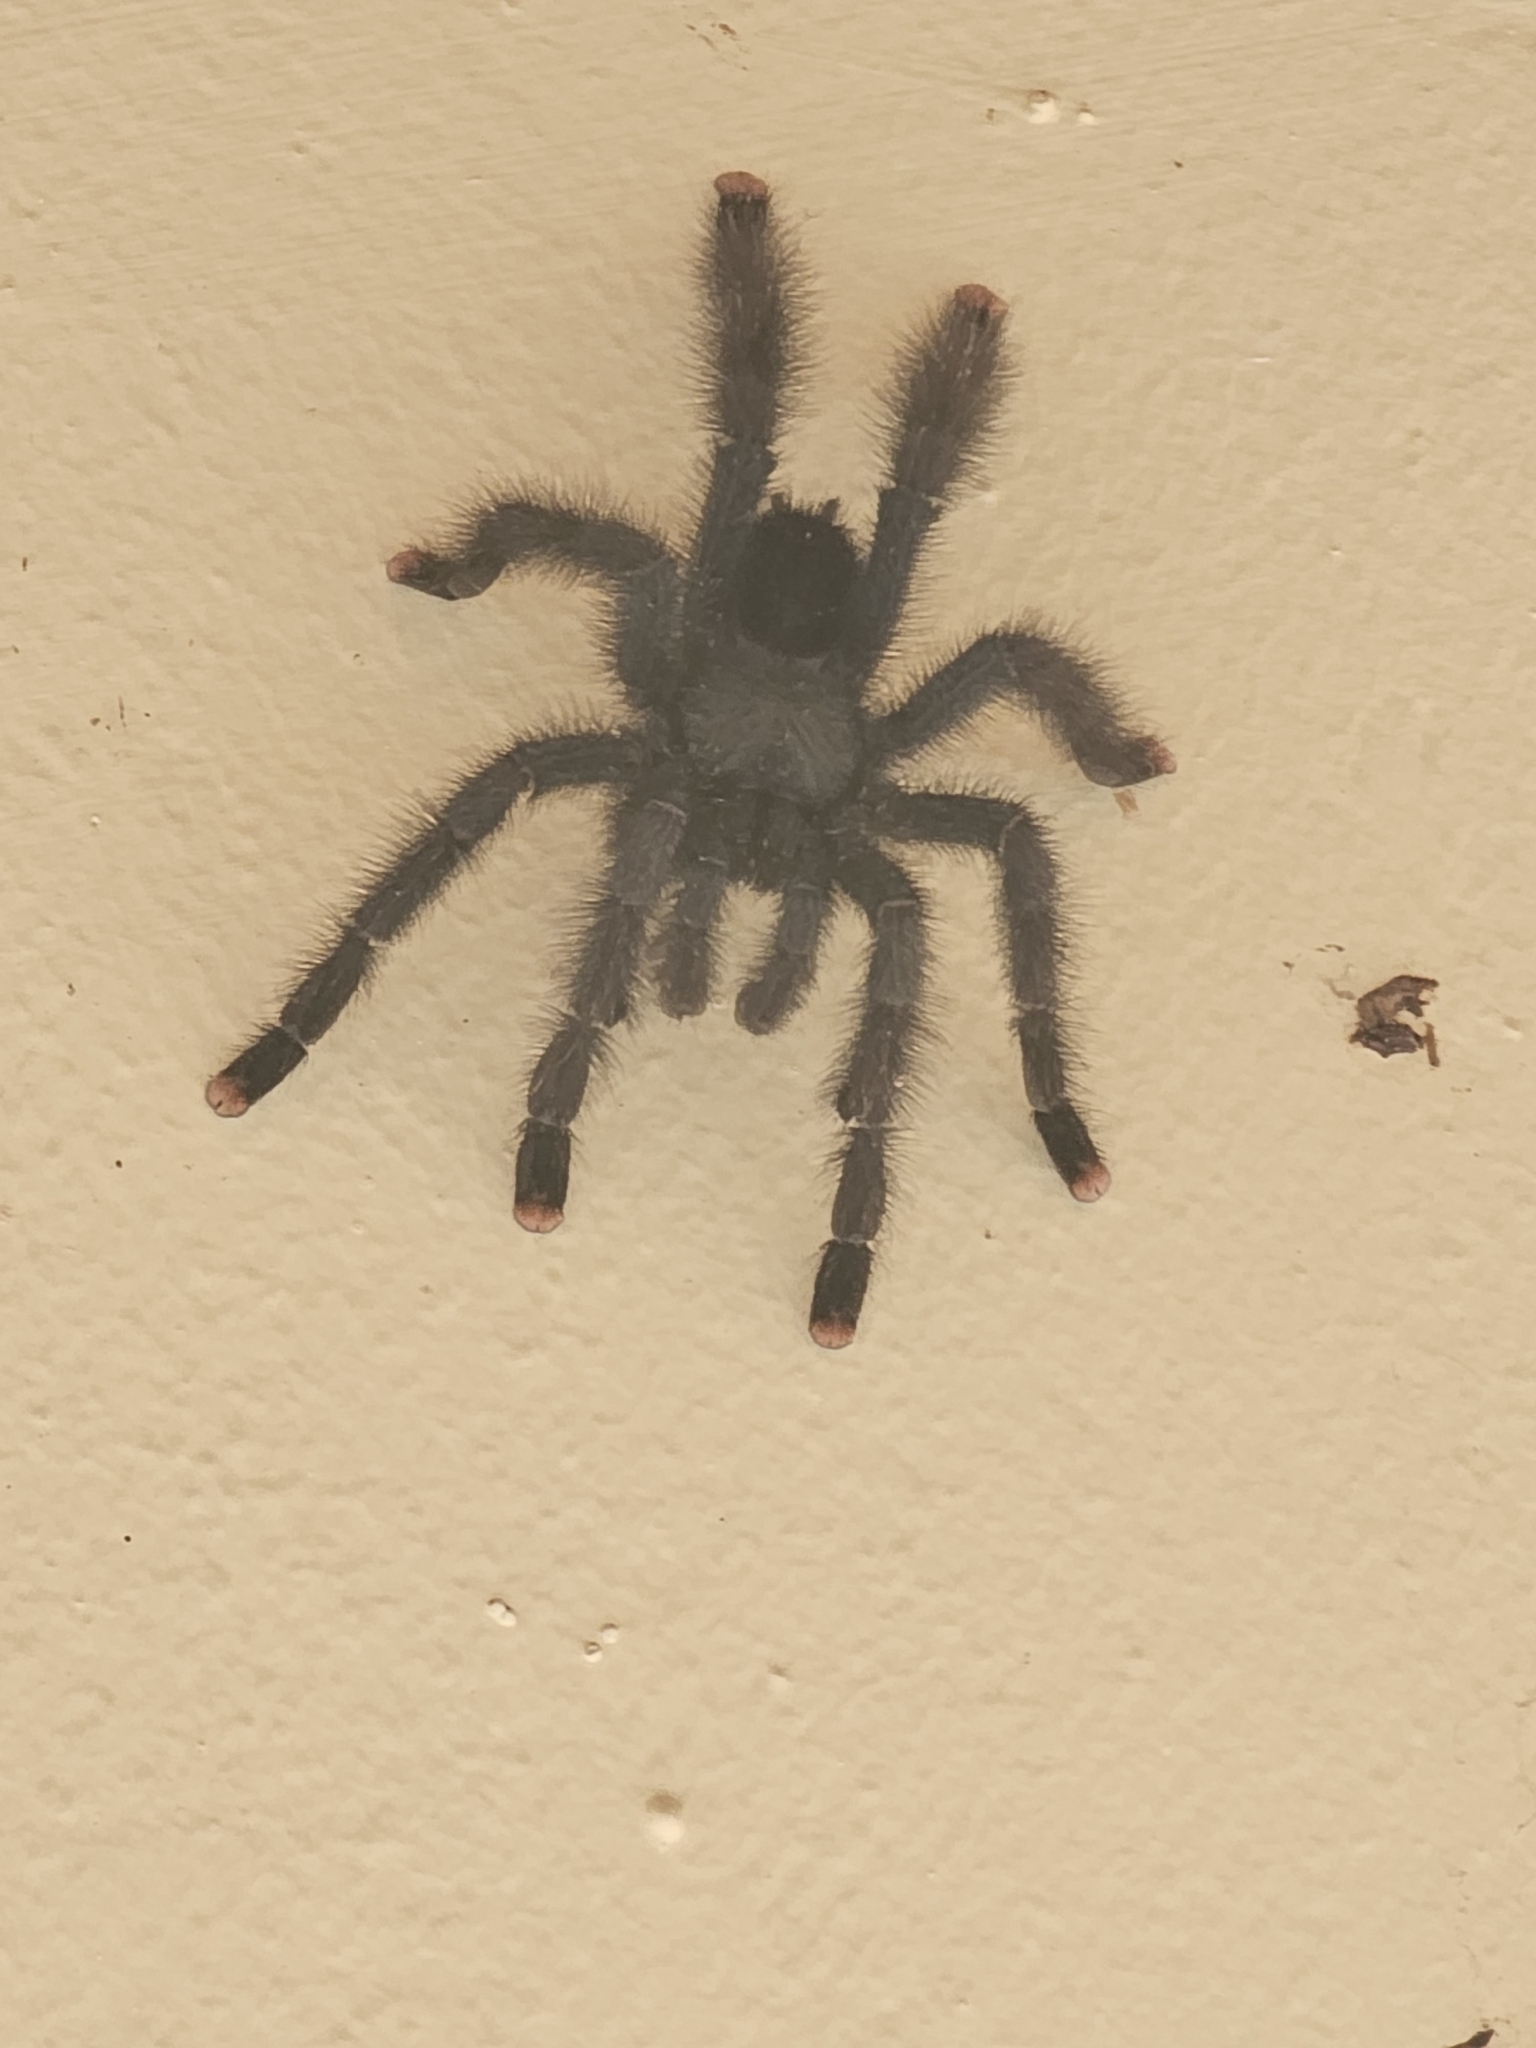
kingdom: Animalia
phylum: Arthropoda
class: Arachnida
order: Araneae
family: Theraphosidae
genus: Avicularia
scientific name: Avicularia avicularia
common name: Tarantula spiders
